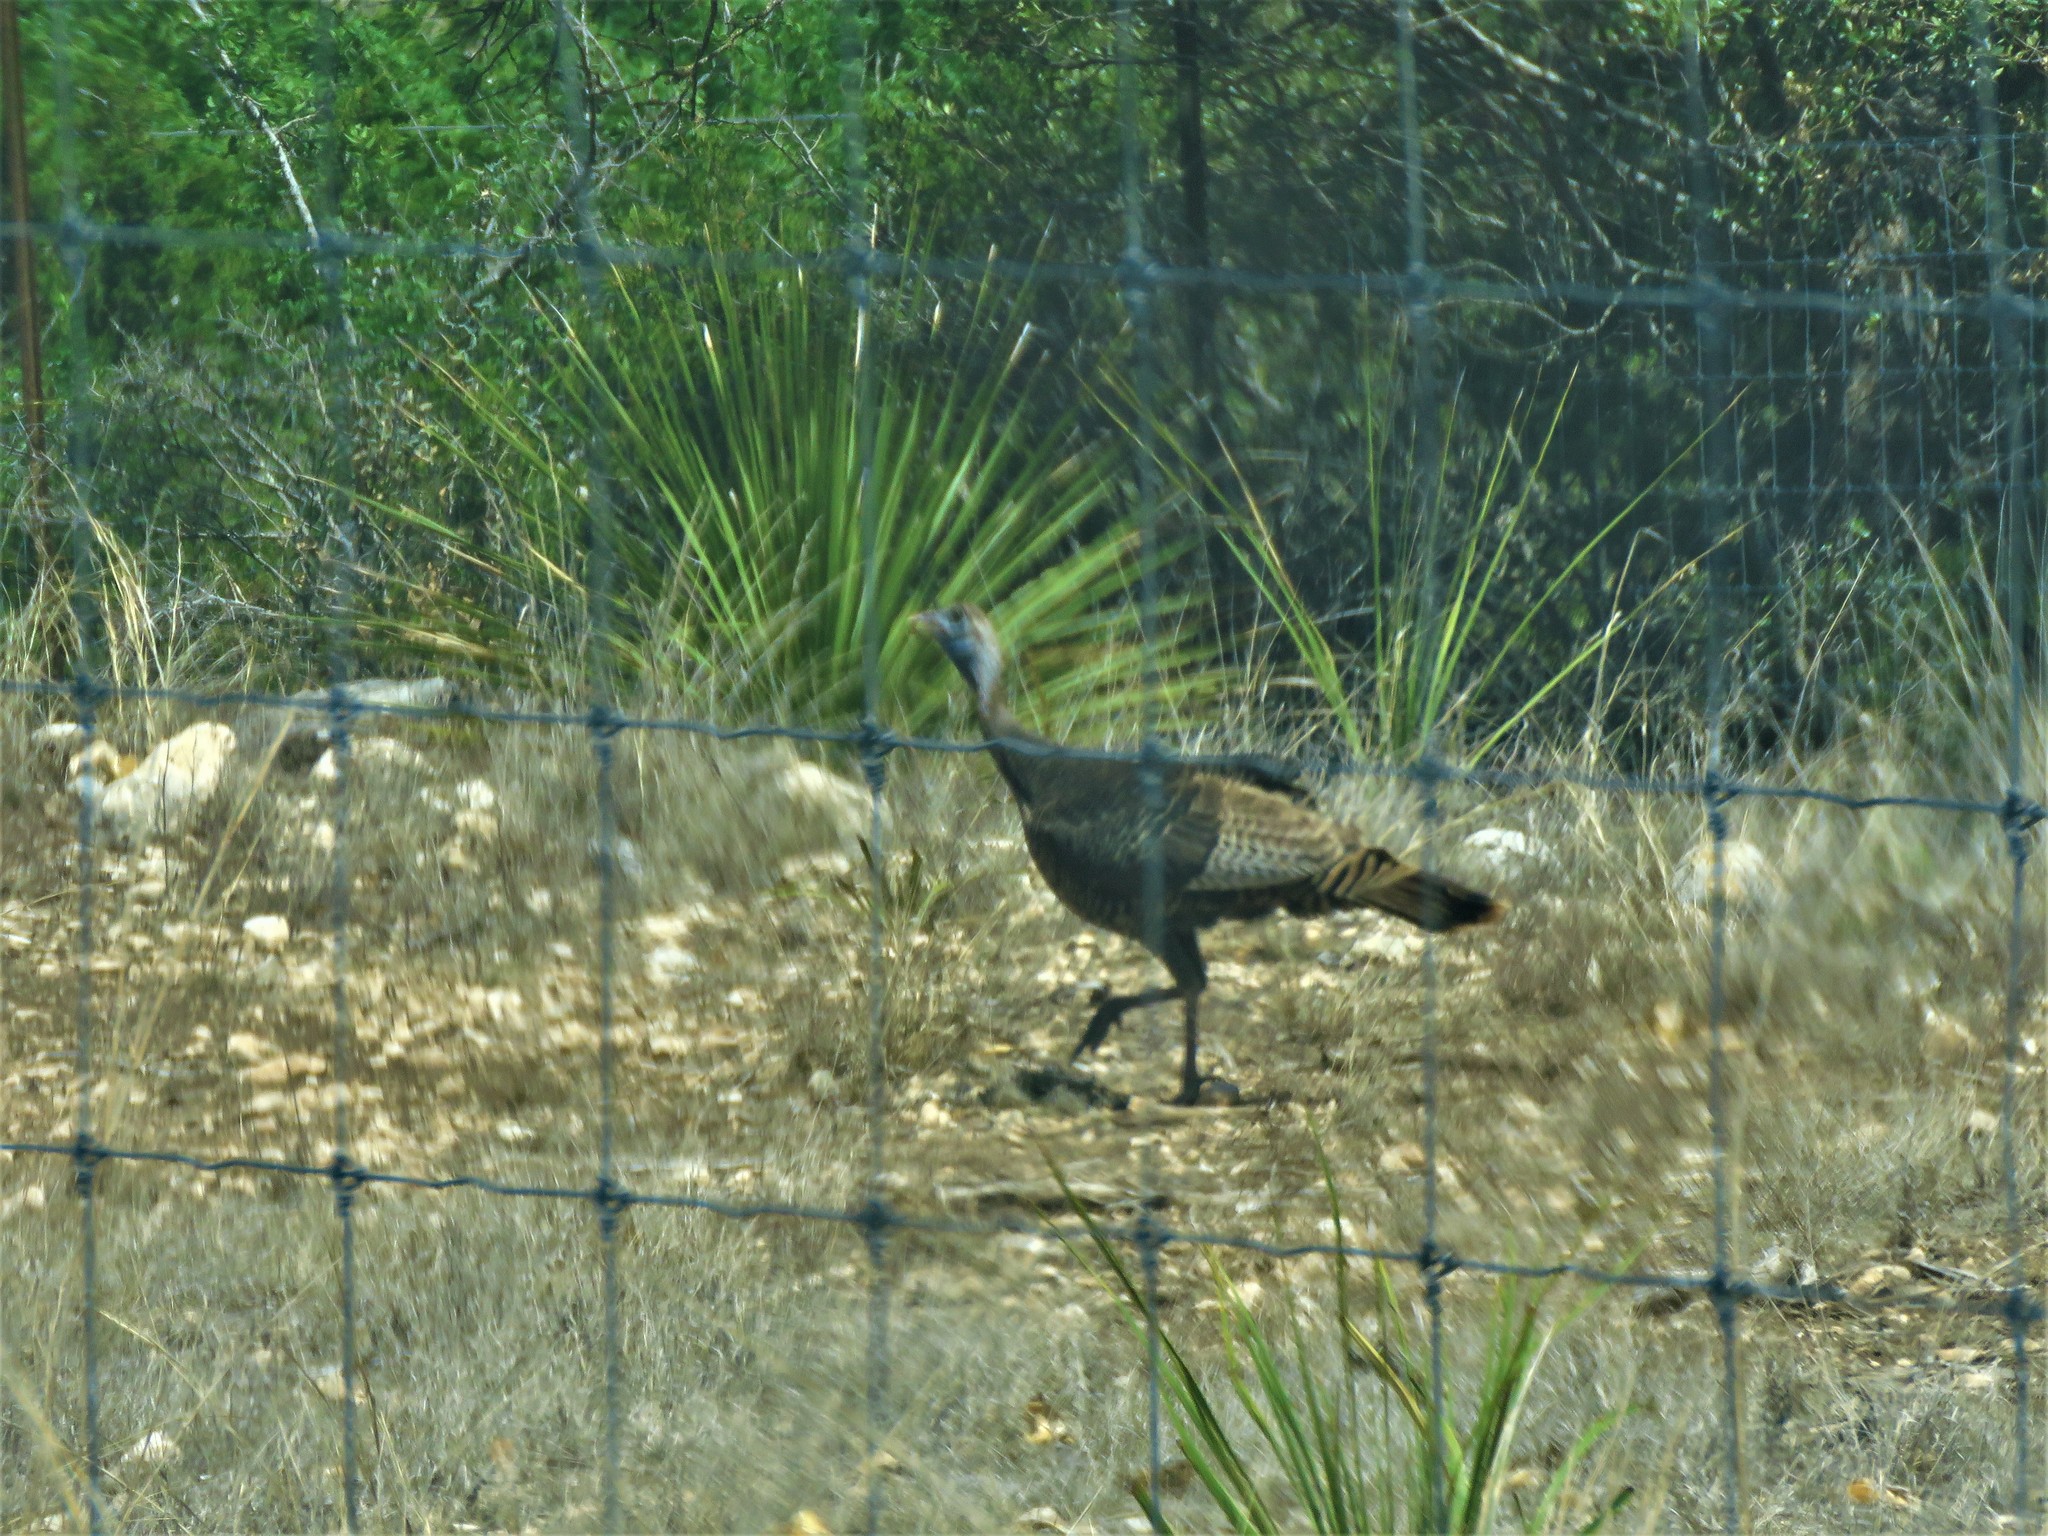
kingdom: Animalia
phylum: Chordata
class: Aves
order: Galliformes
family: Phasianidae
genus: Meleagris
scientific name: Meleagris gallopavo
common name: Wild turkey
